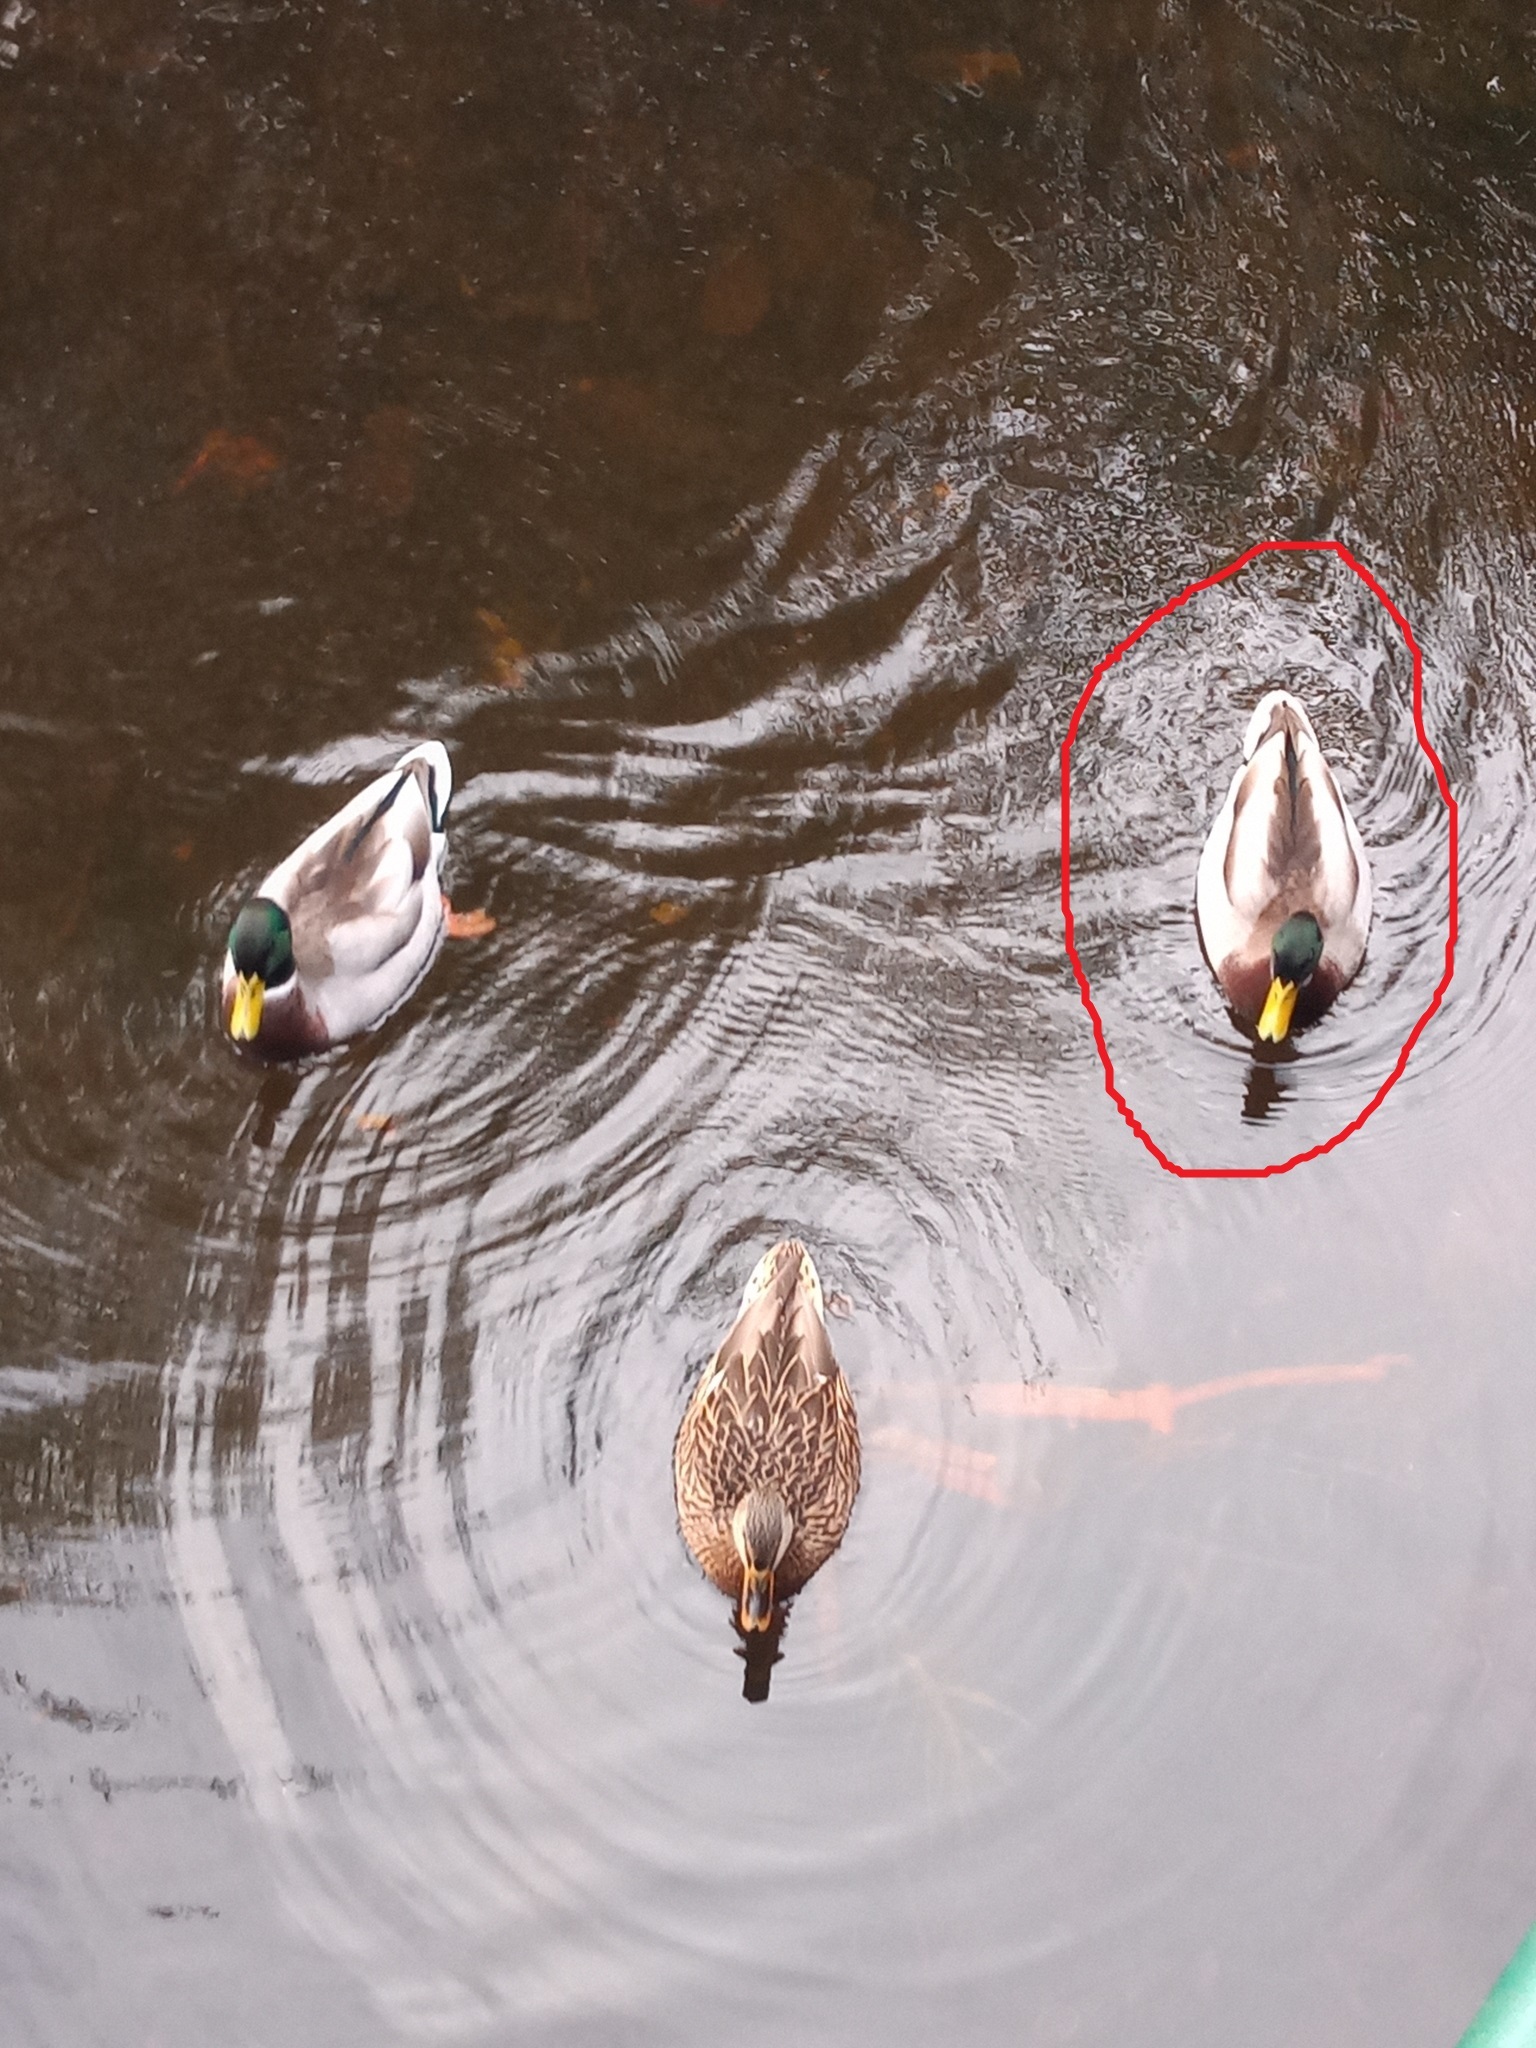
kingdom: Animalia
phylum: Chordata
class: Aves
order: Anseriformes
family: Anatidae
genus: Anas
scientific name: Anas platyrhynchos
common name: Mallard
